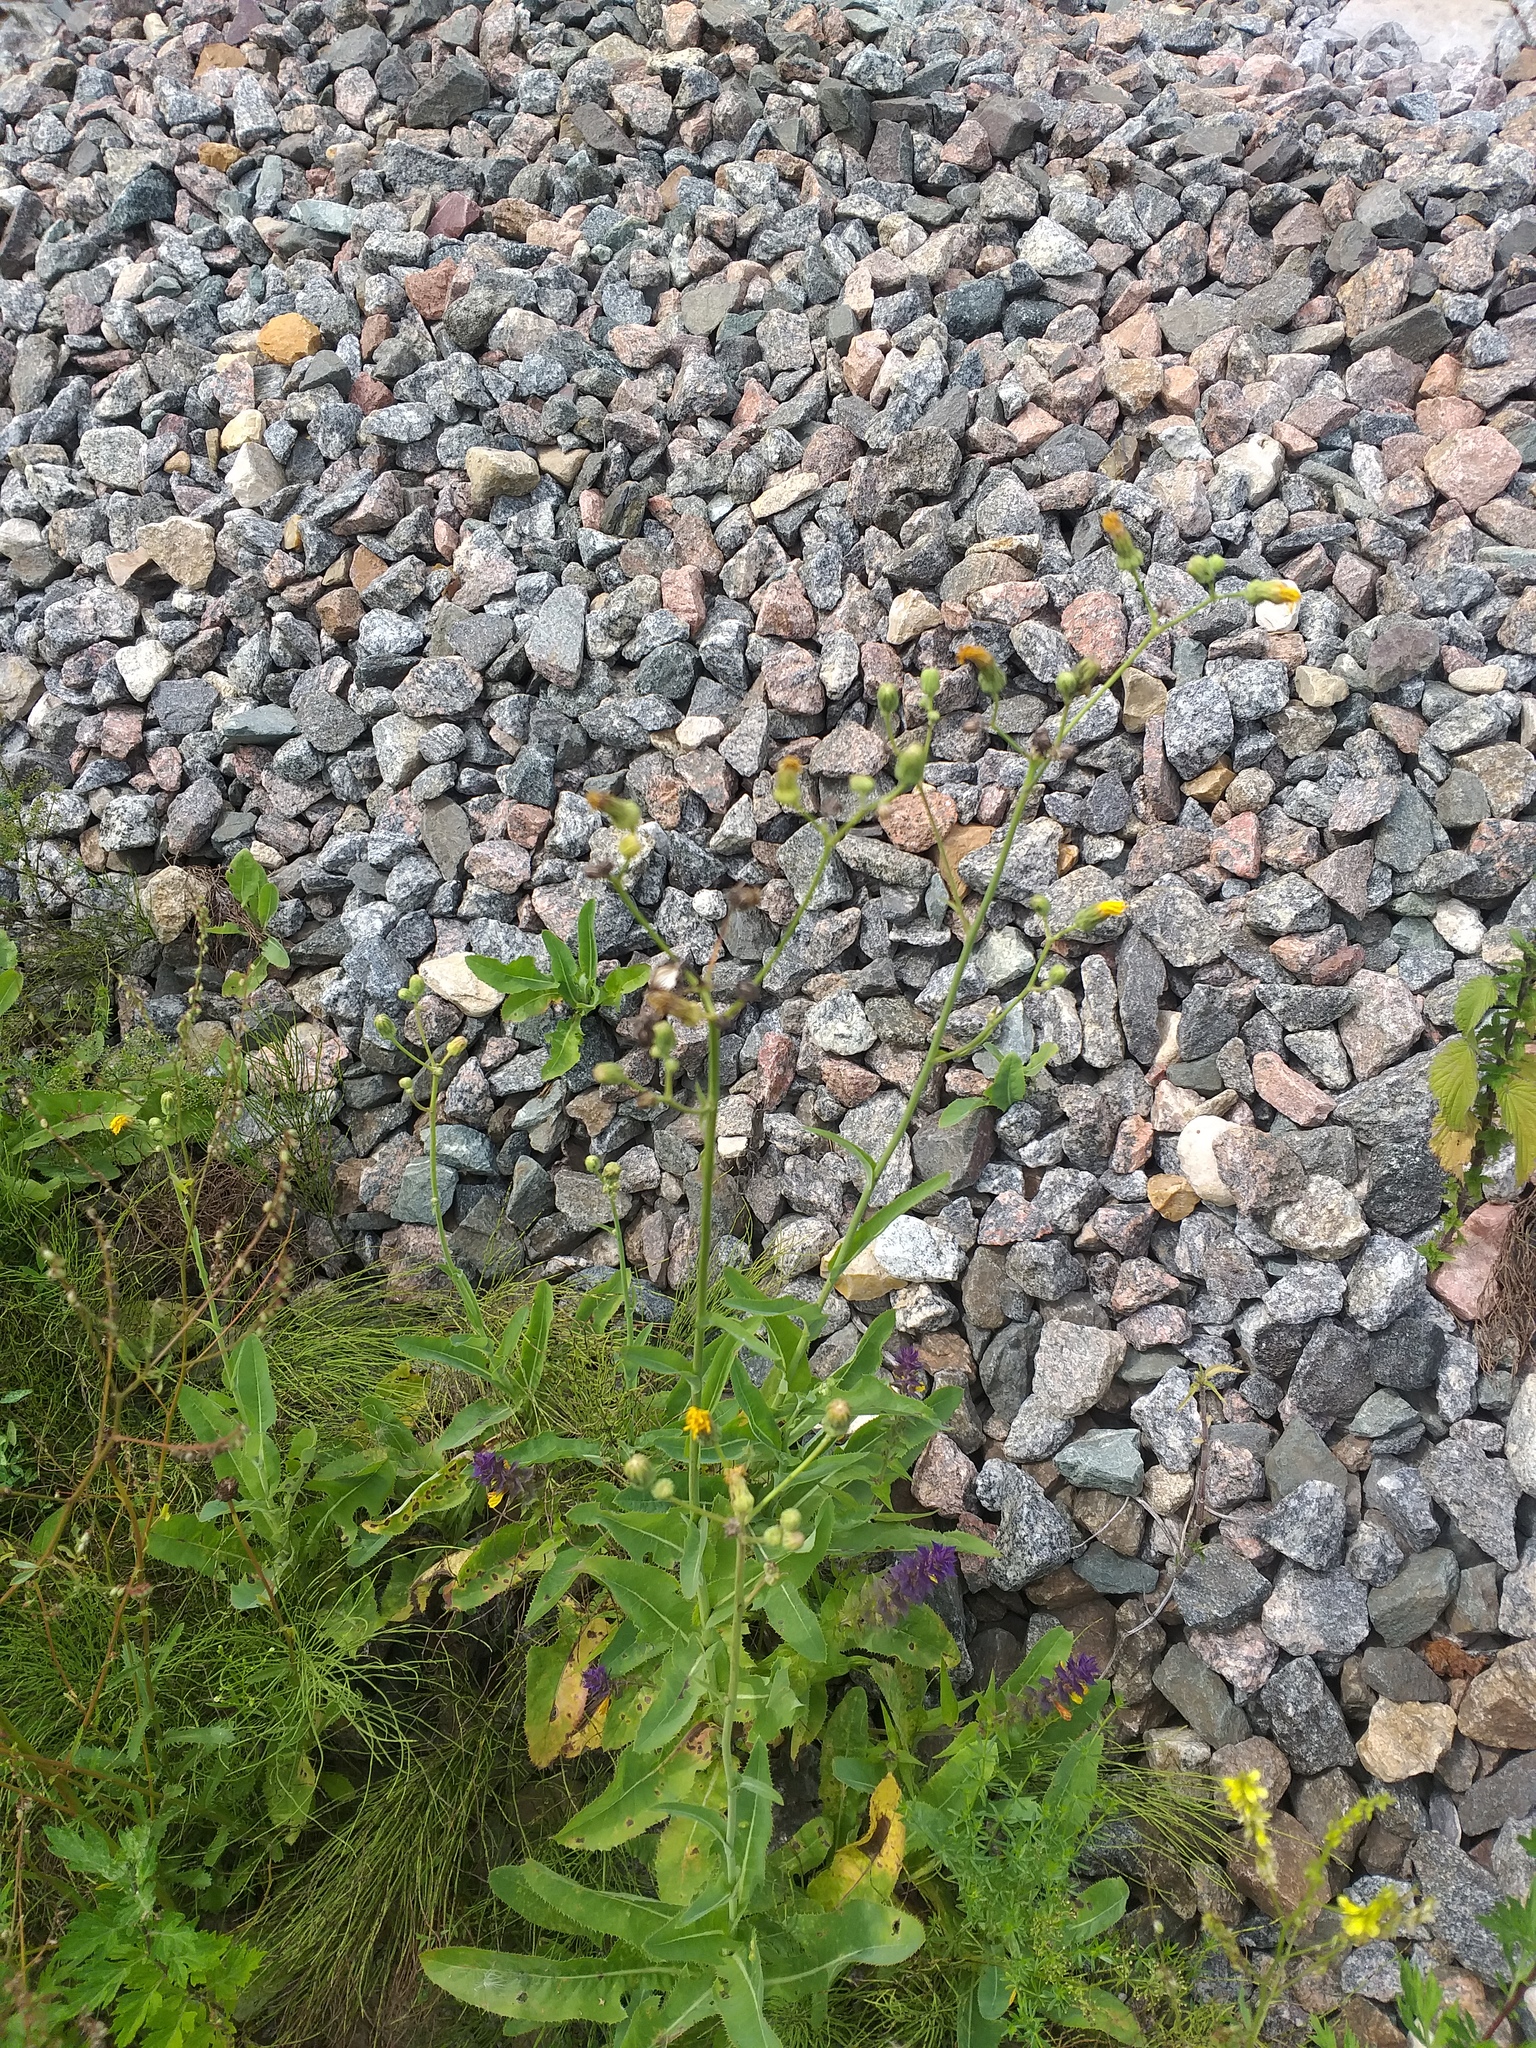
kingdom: Plantae
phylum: Tracheophyta
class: Magnoliopsida
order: Asterales
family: Asteraceae
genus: Sonchus
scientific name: Sonchus arvensis
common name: Perennial sow-thistle
